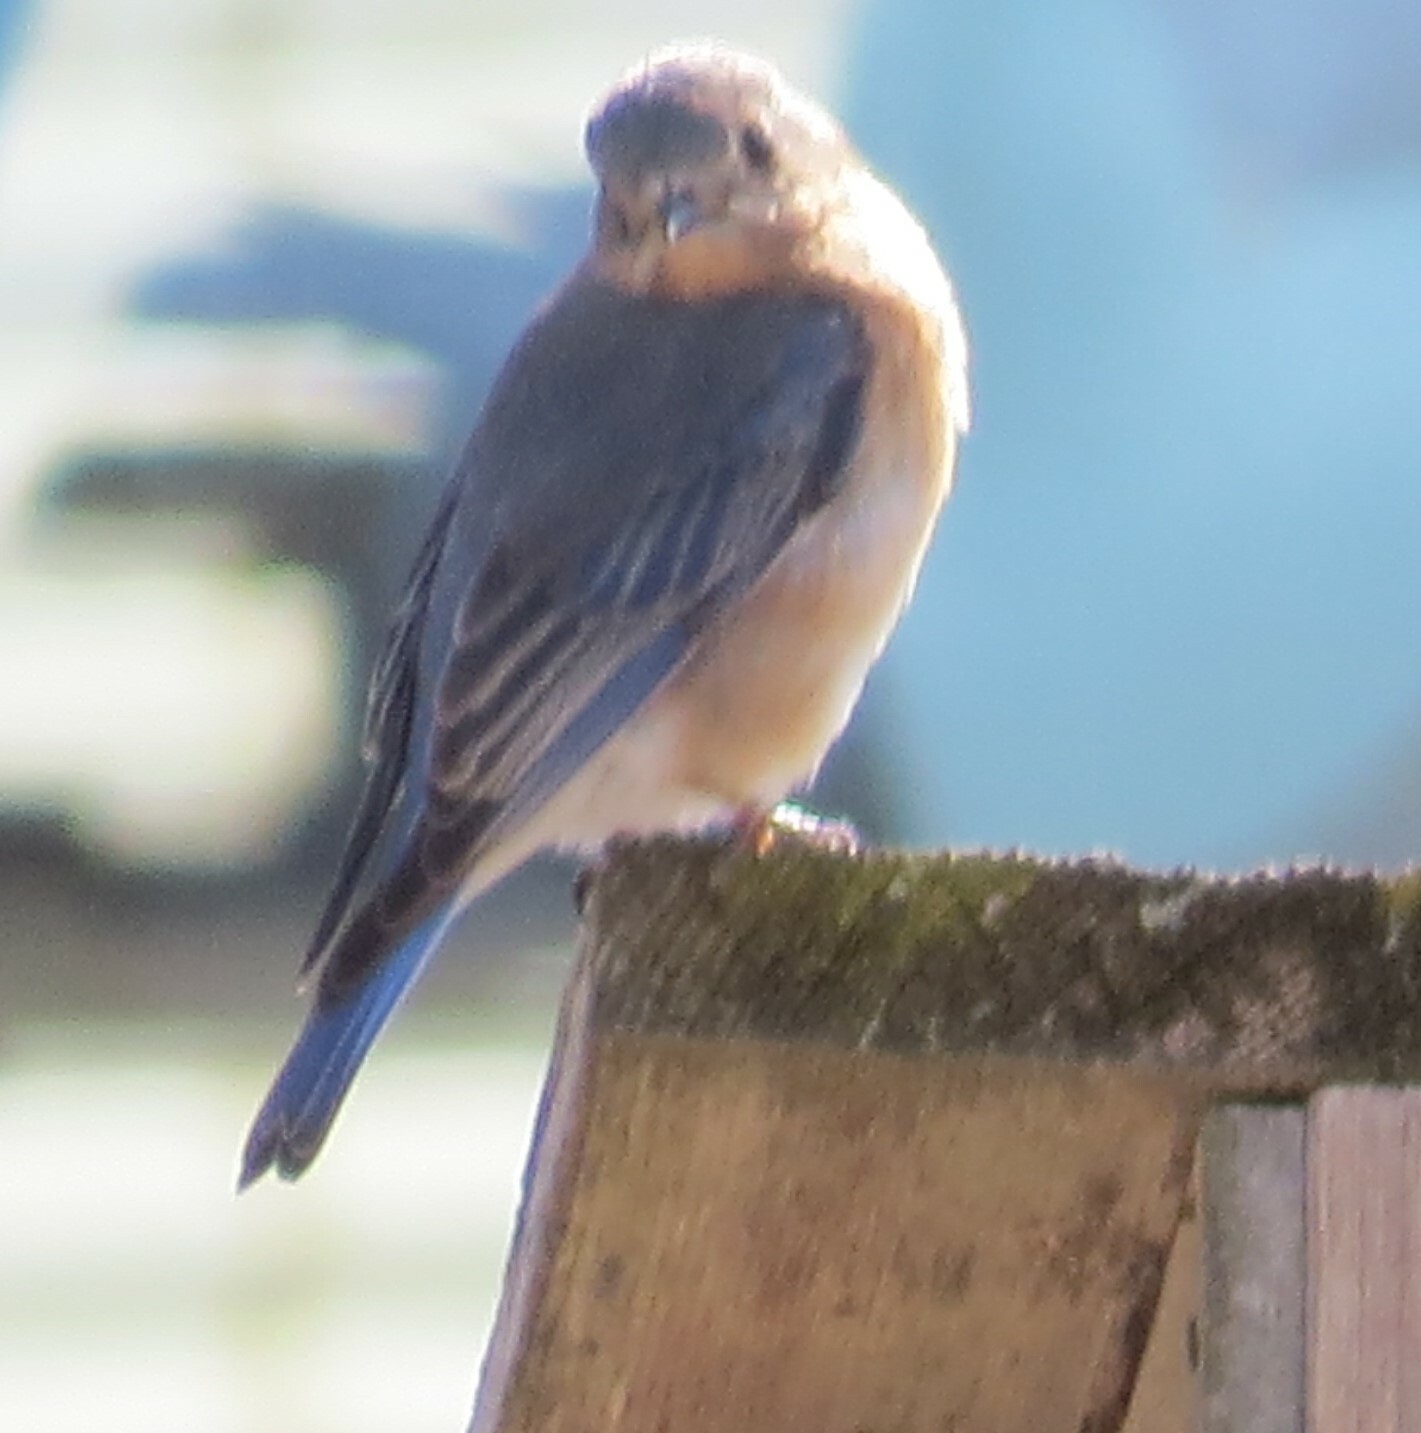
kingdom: Animalia
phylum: Chordata
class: Aves
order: Passeriformes
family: Turdidae
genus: Sialia
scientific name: Sialia sialis
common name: Eastern bluebird
